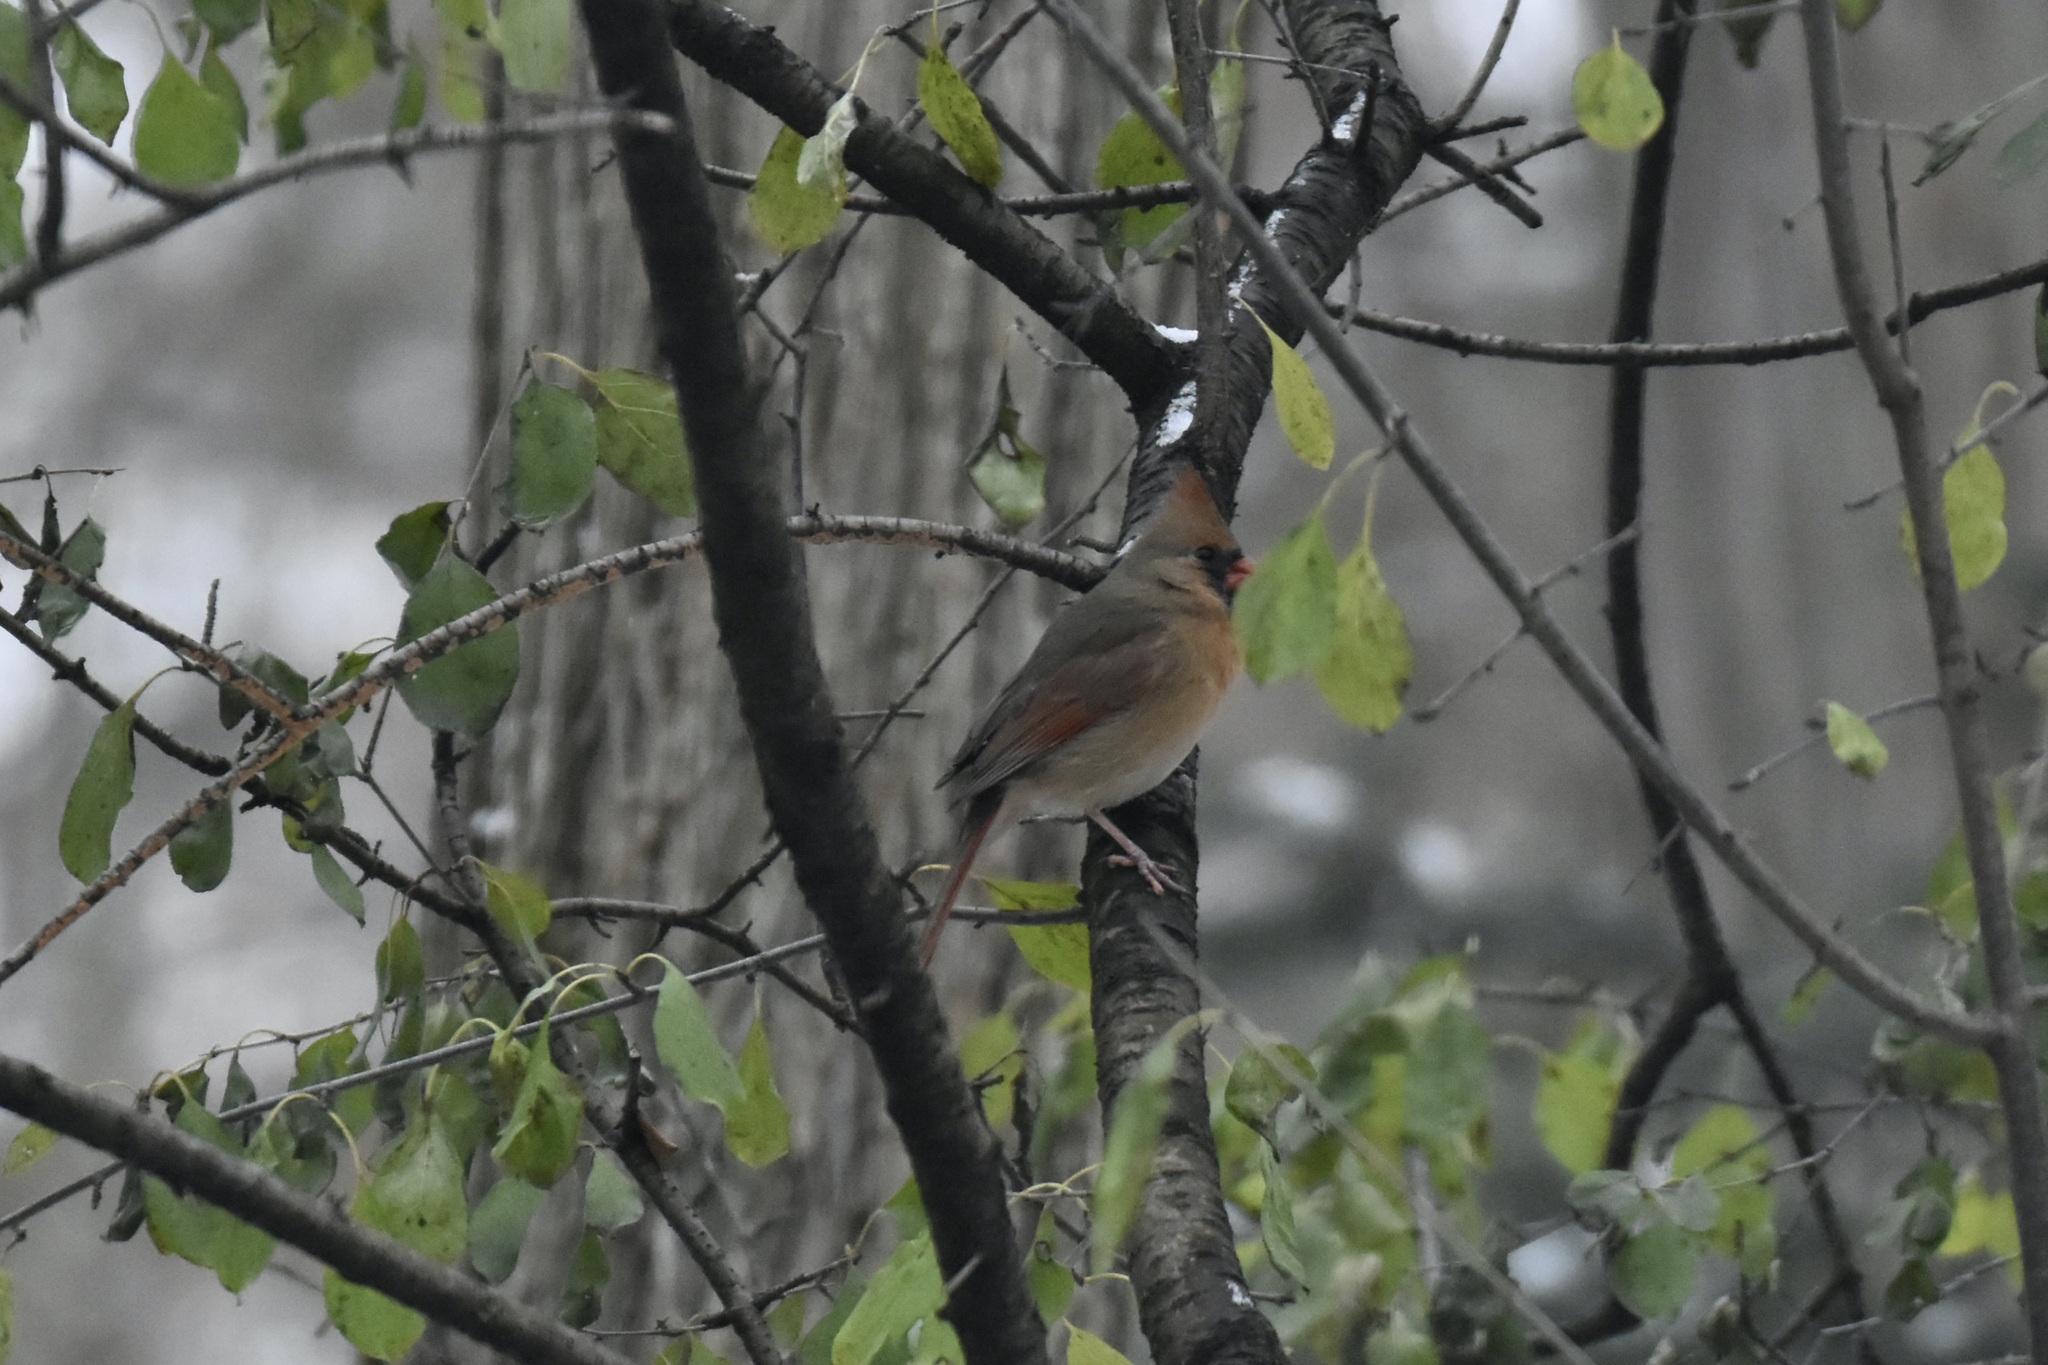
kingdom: Animalia
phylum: Chordata
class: Aves
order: Passeriformes
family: Cardinalidae
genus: Cardinalis
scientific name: Cardinalis cardinalis
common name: Northern cardinal
